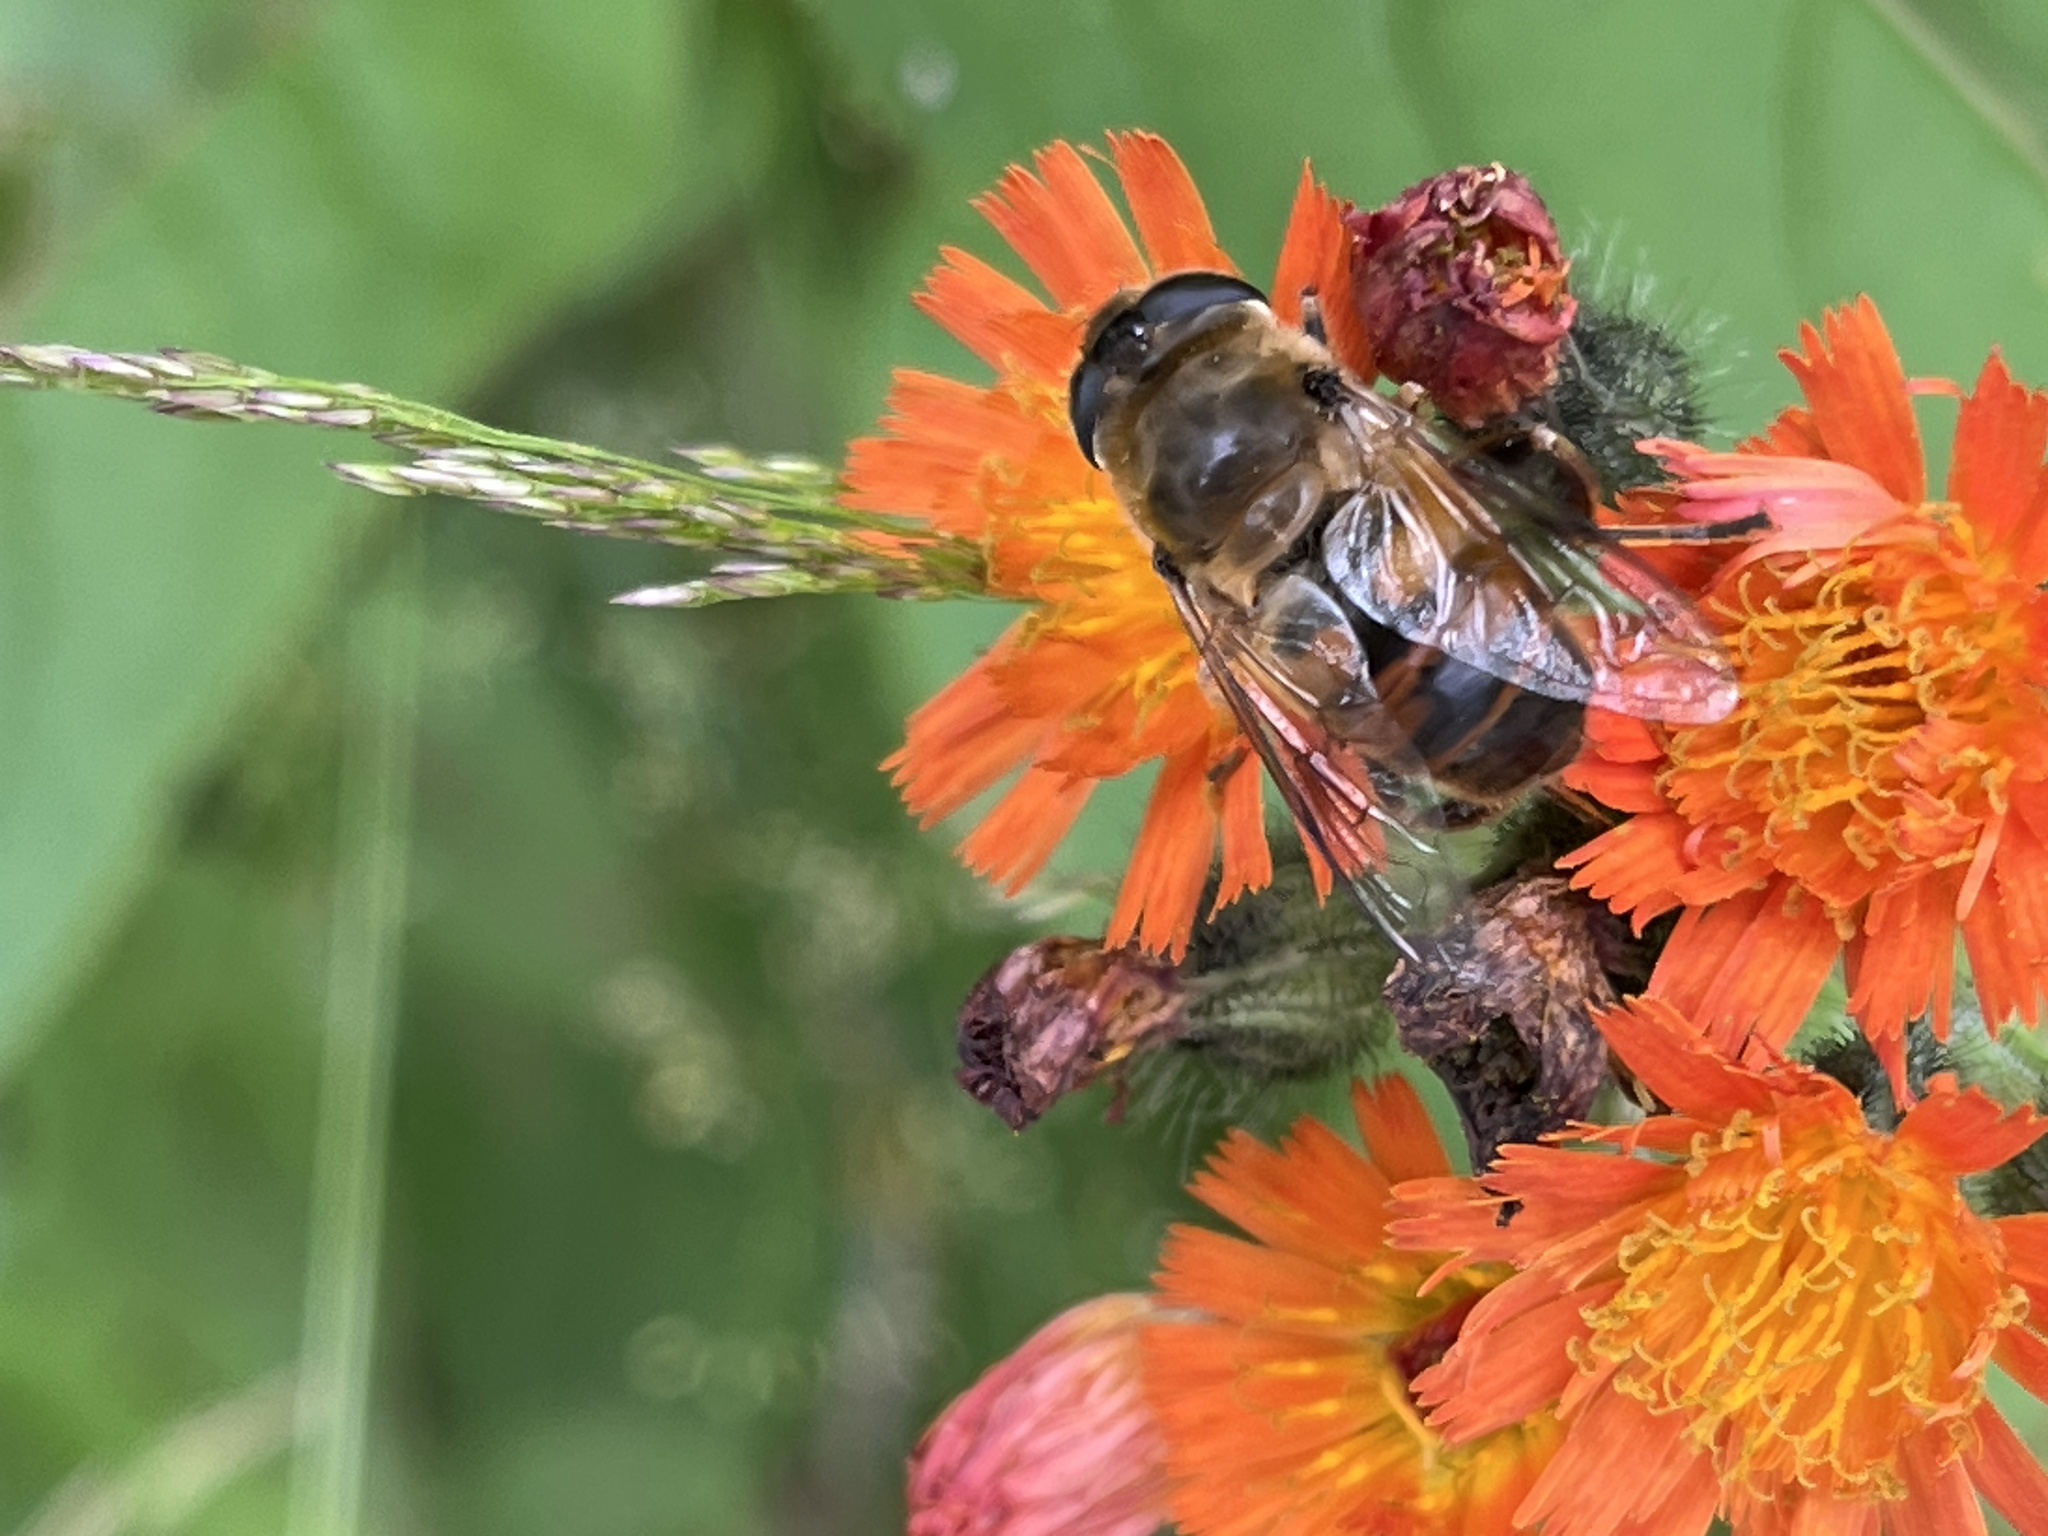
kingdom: Animalia
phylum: Arthropoda
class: Insecta
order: Diptera
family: Syrphidae
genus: Eristalis
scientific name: Eristalis tenax
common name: Drone fly
